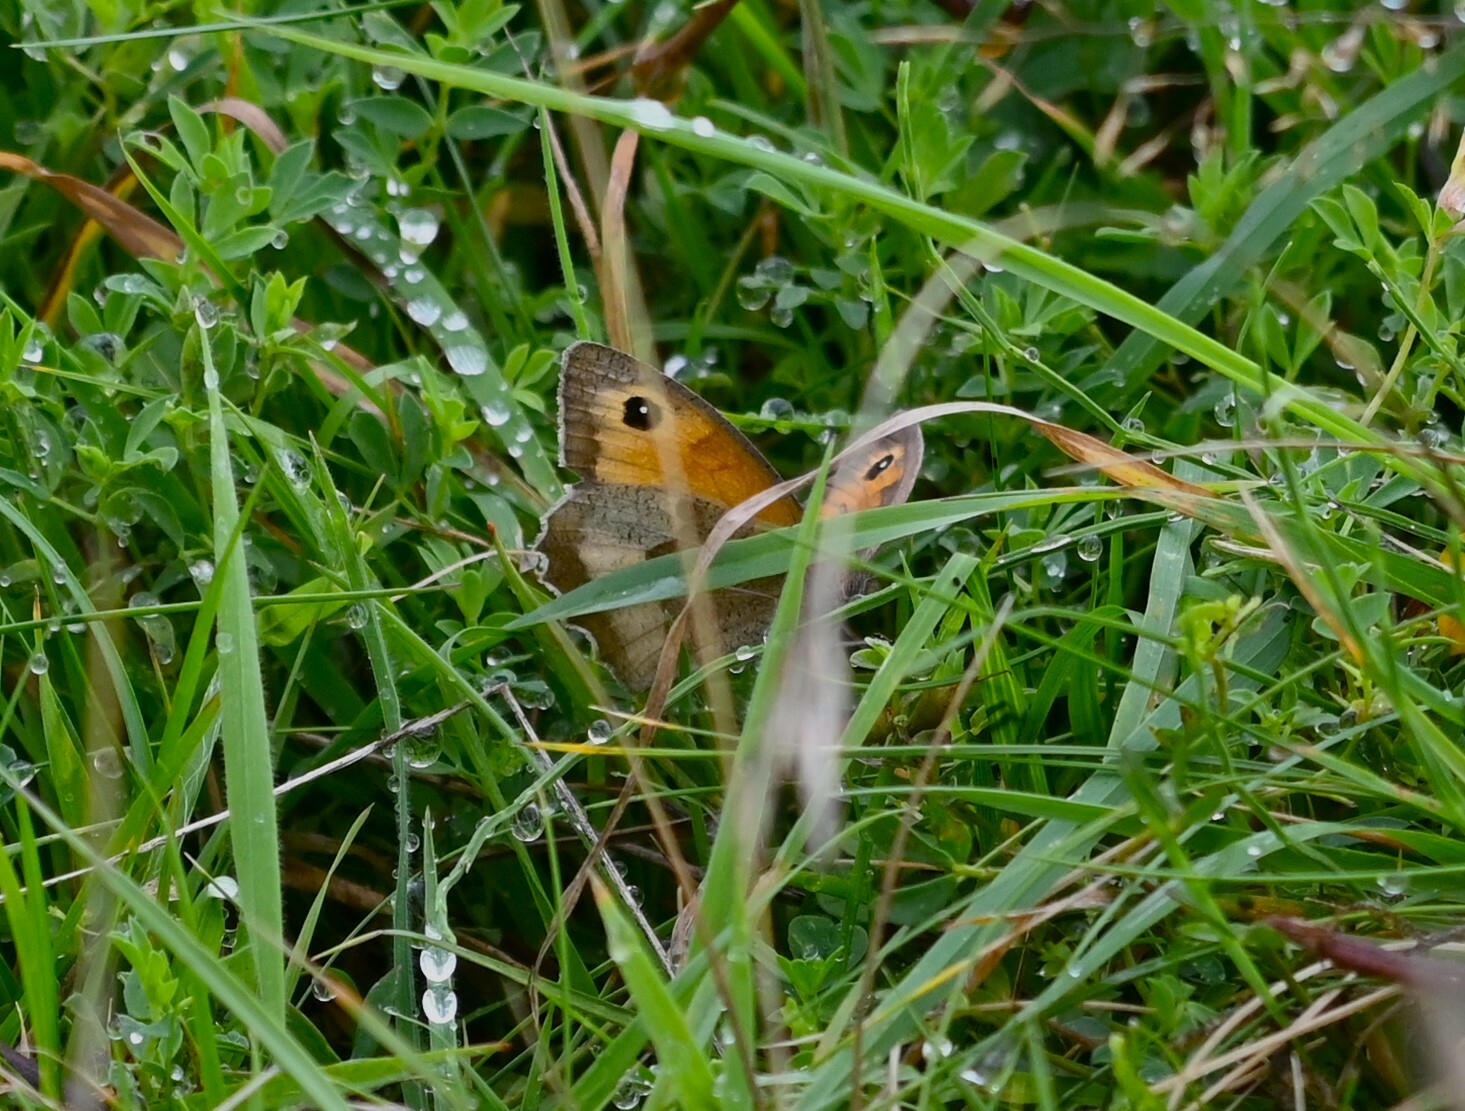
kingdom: Animalia
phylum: Arthropoda
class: Insecta
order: Lepidoptera
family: Nymphalidae
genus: Maniola
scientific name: Maniola jurtina
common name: Meadow brown
